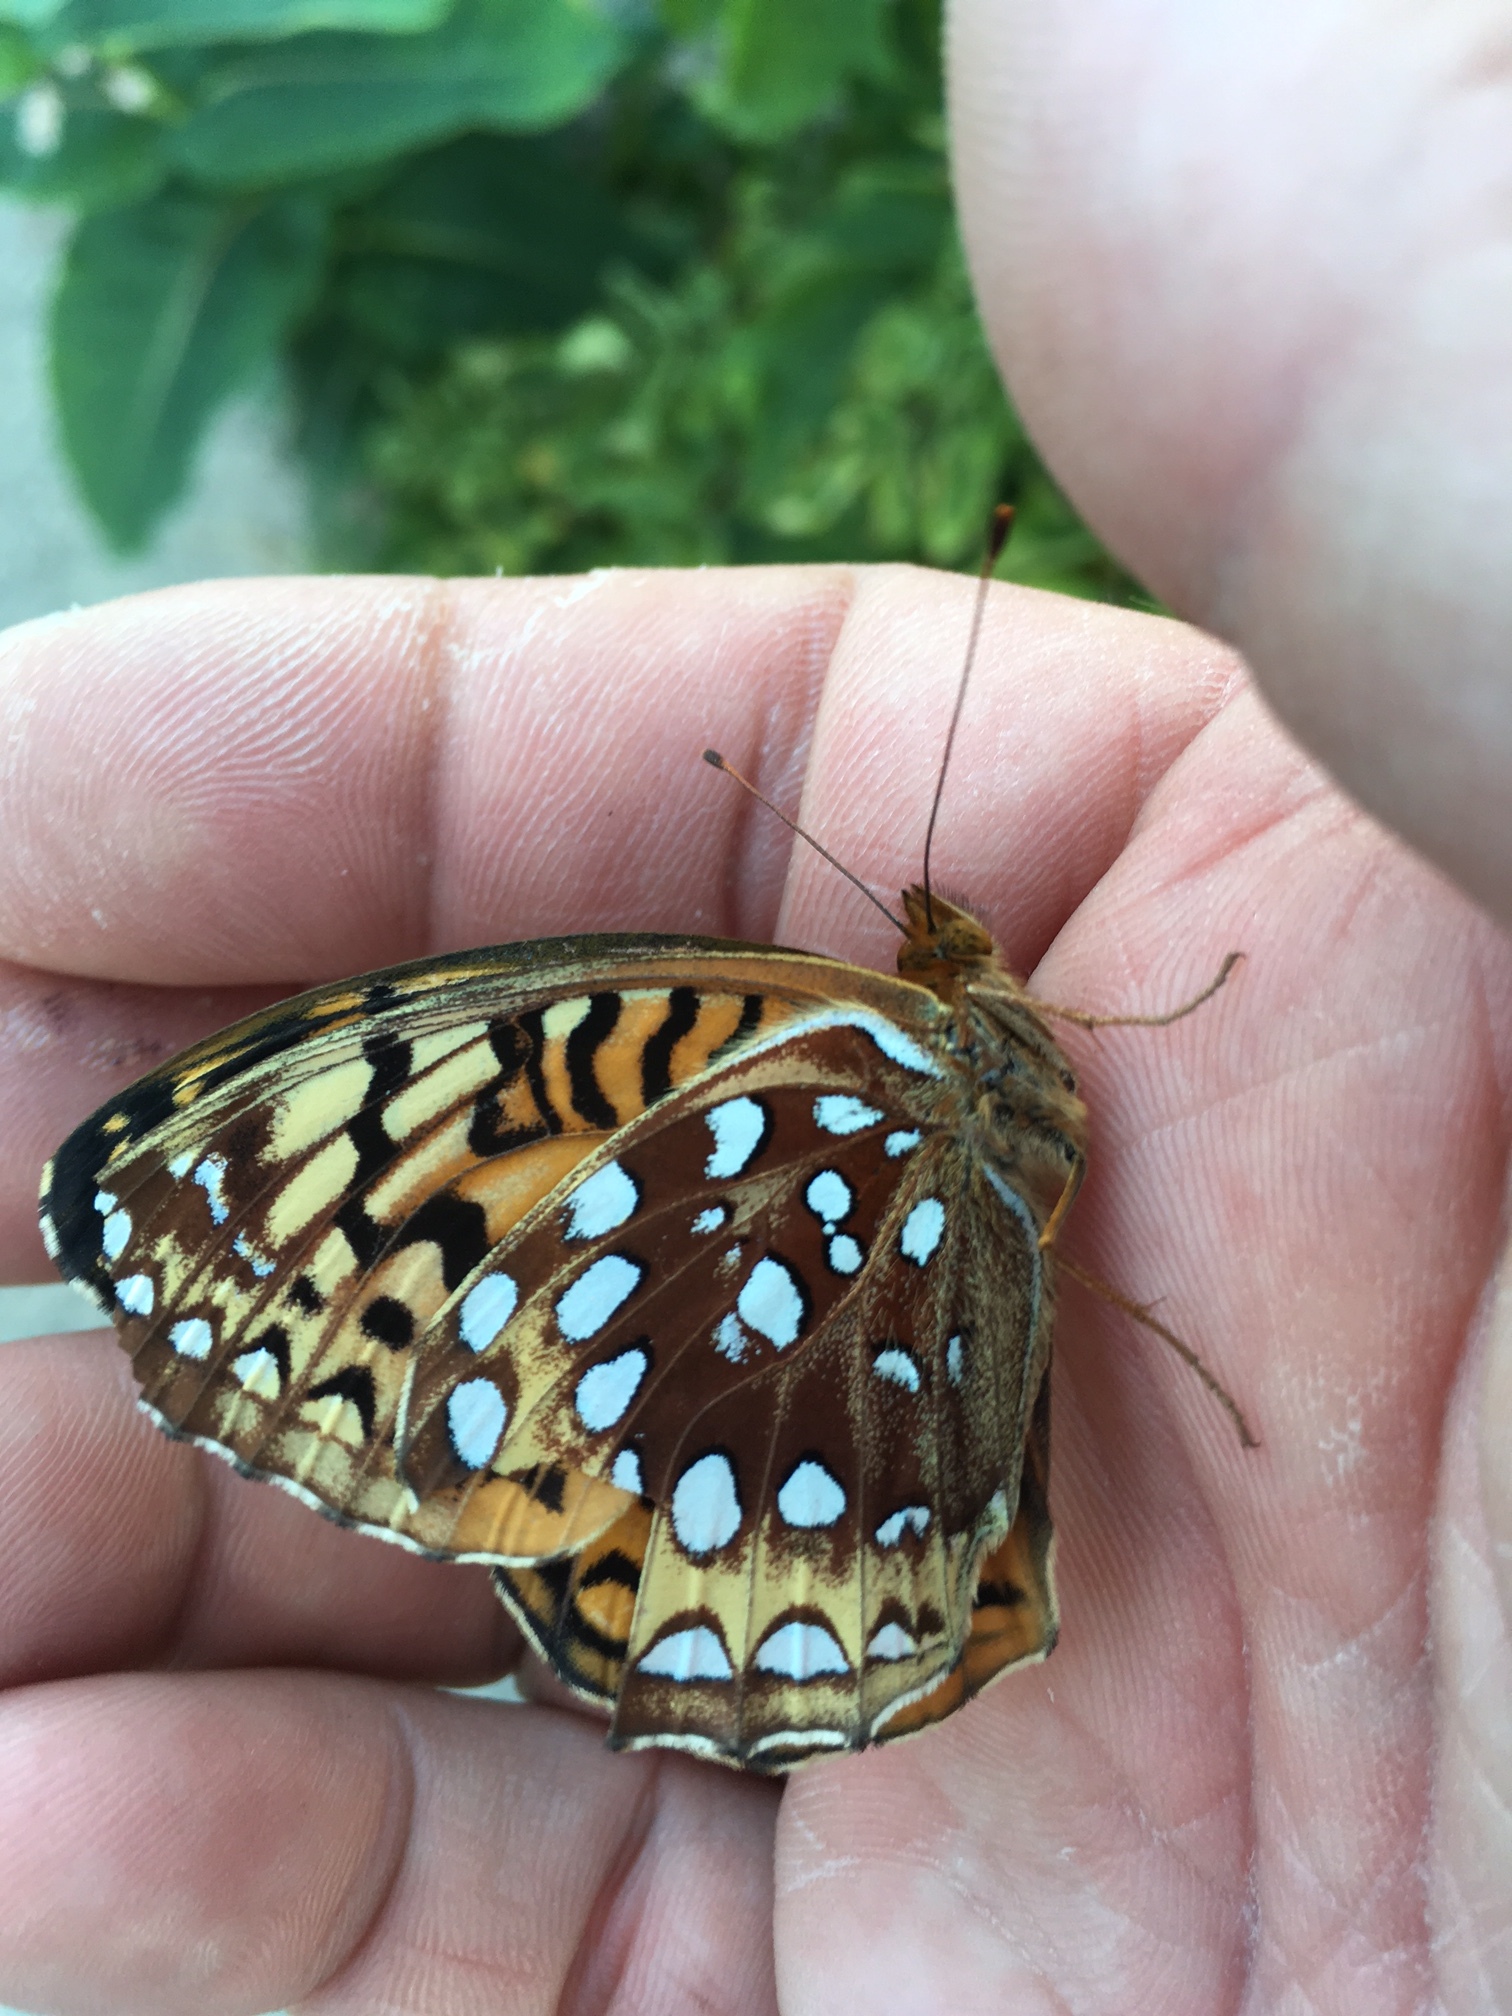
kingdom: Animalia
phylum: Arthropoda
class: Insecta
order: Lepidoptera
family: Nymphalidae
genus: Speyeria
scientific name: Speyeria cybele
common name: Great spangled fritillary
